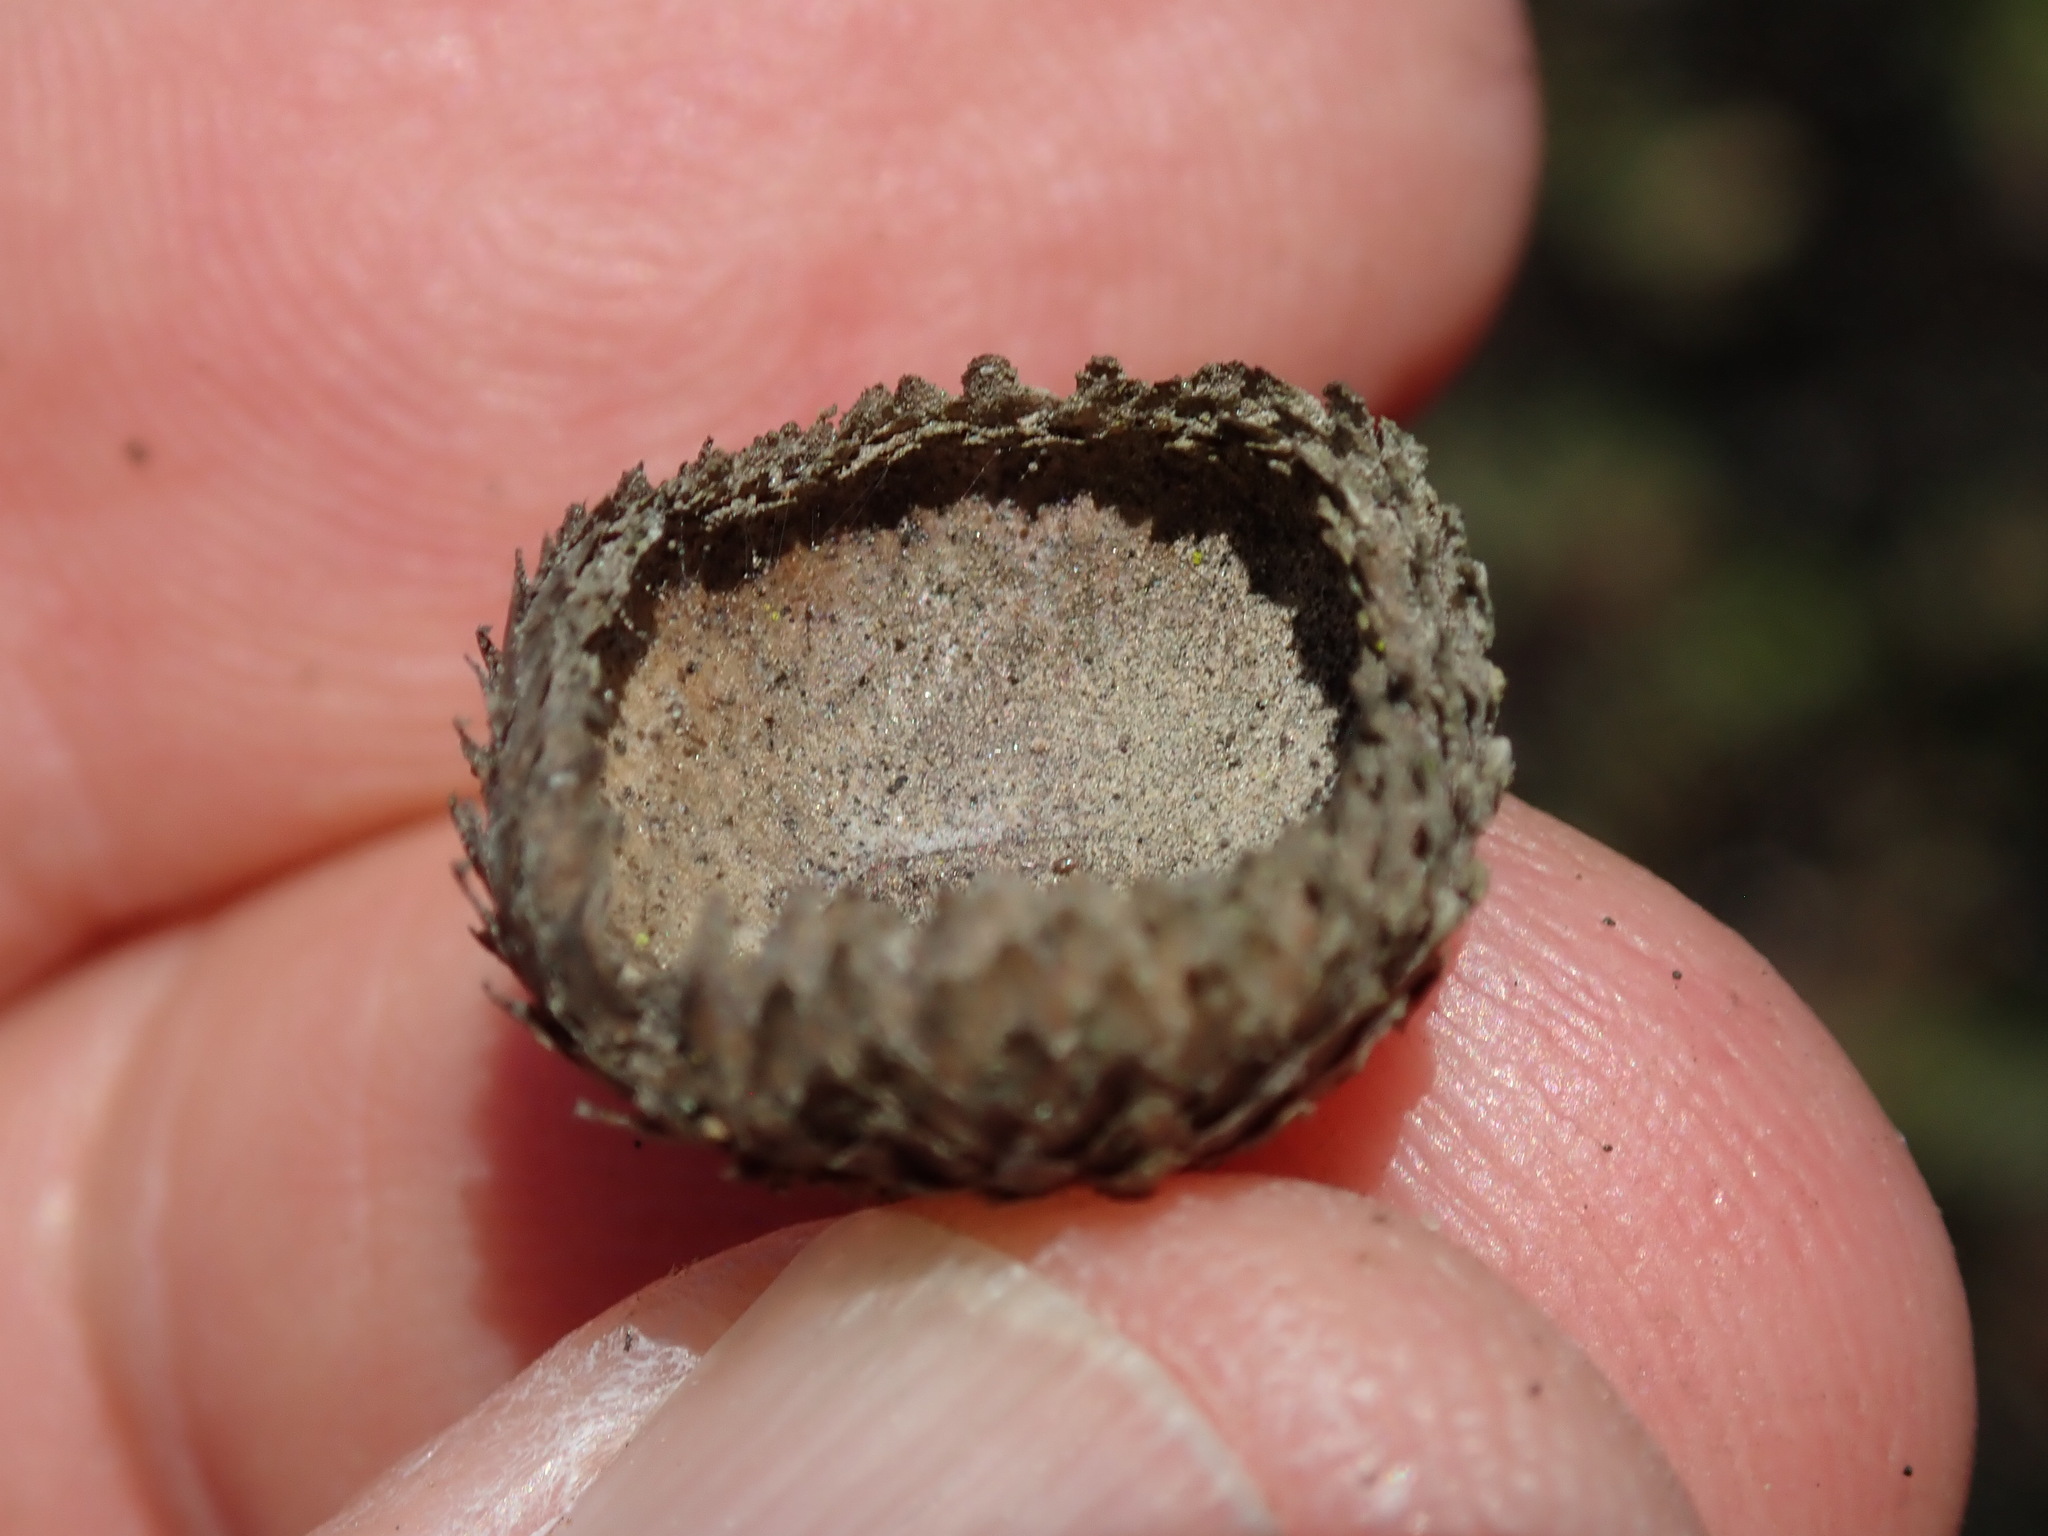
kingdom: Plantae
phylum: Tracheophyta
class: Magnoliopsida
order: Fagales
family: Fagaceae
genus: Quercus
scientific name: Quercus agrifolia
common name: California live oak
